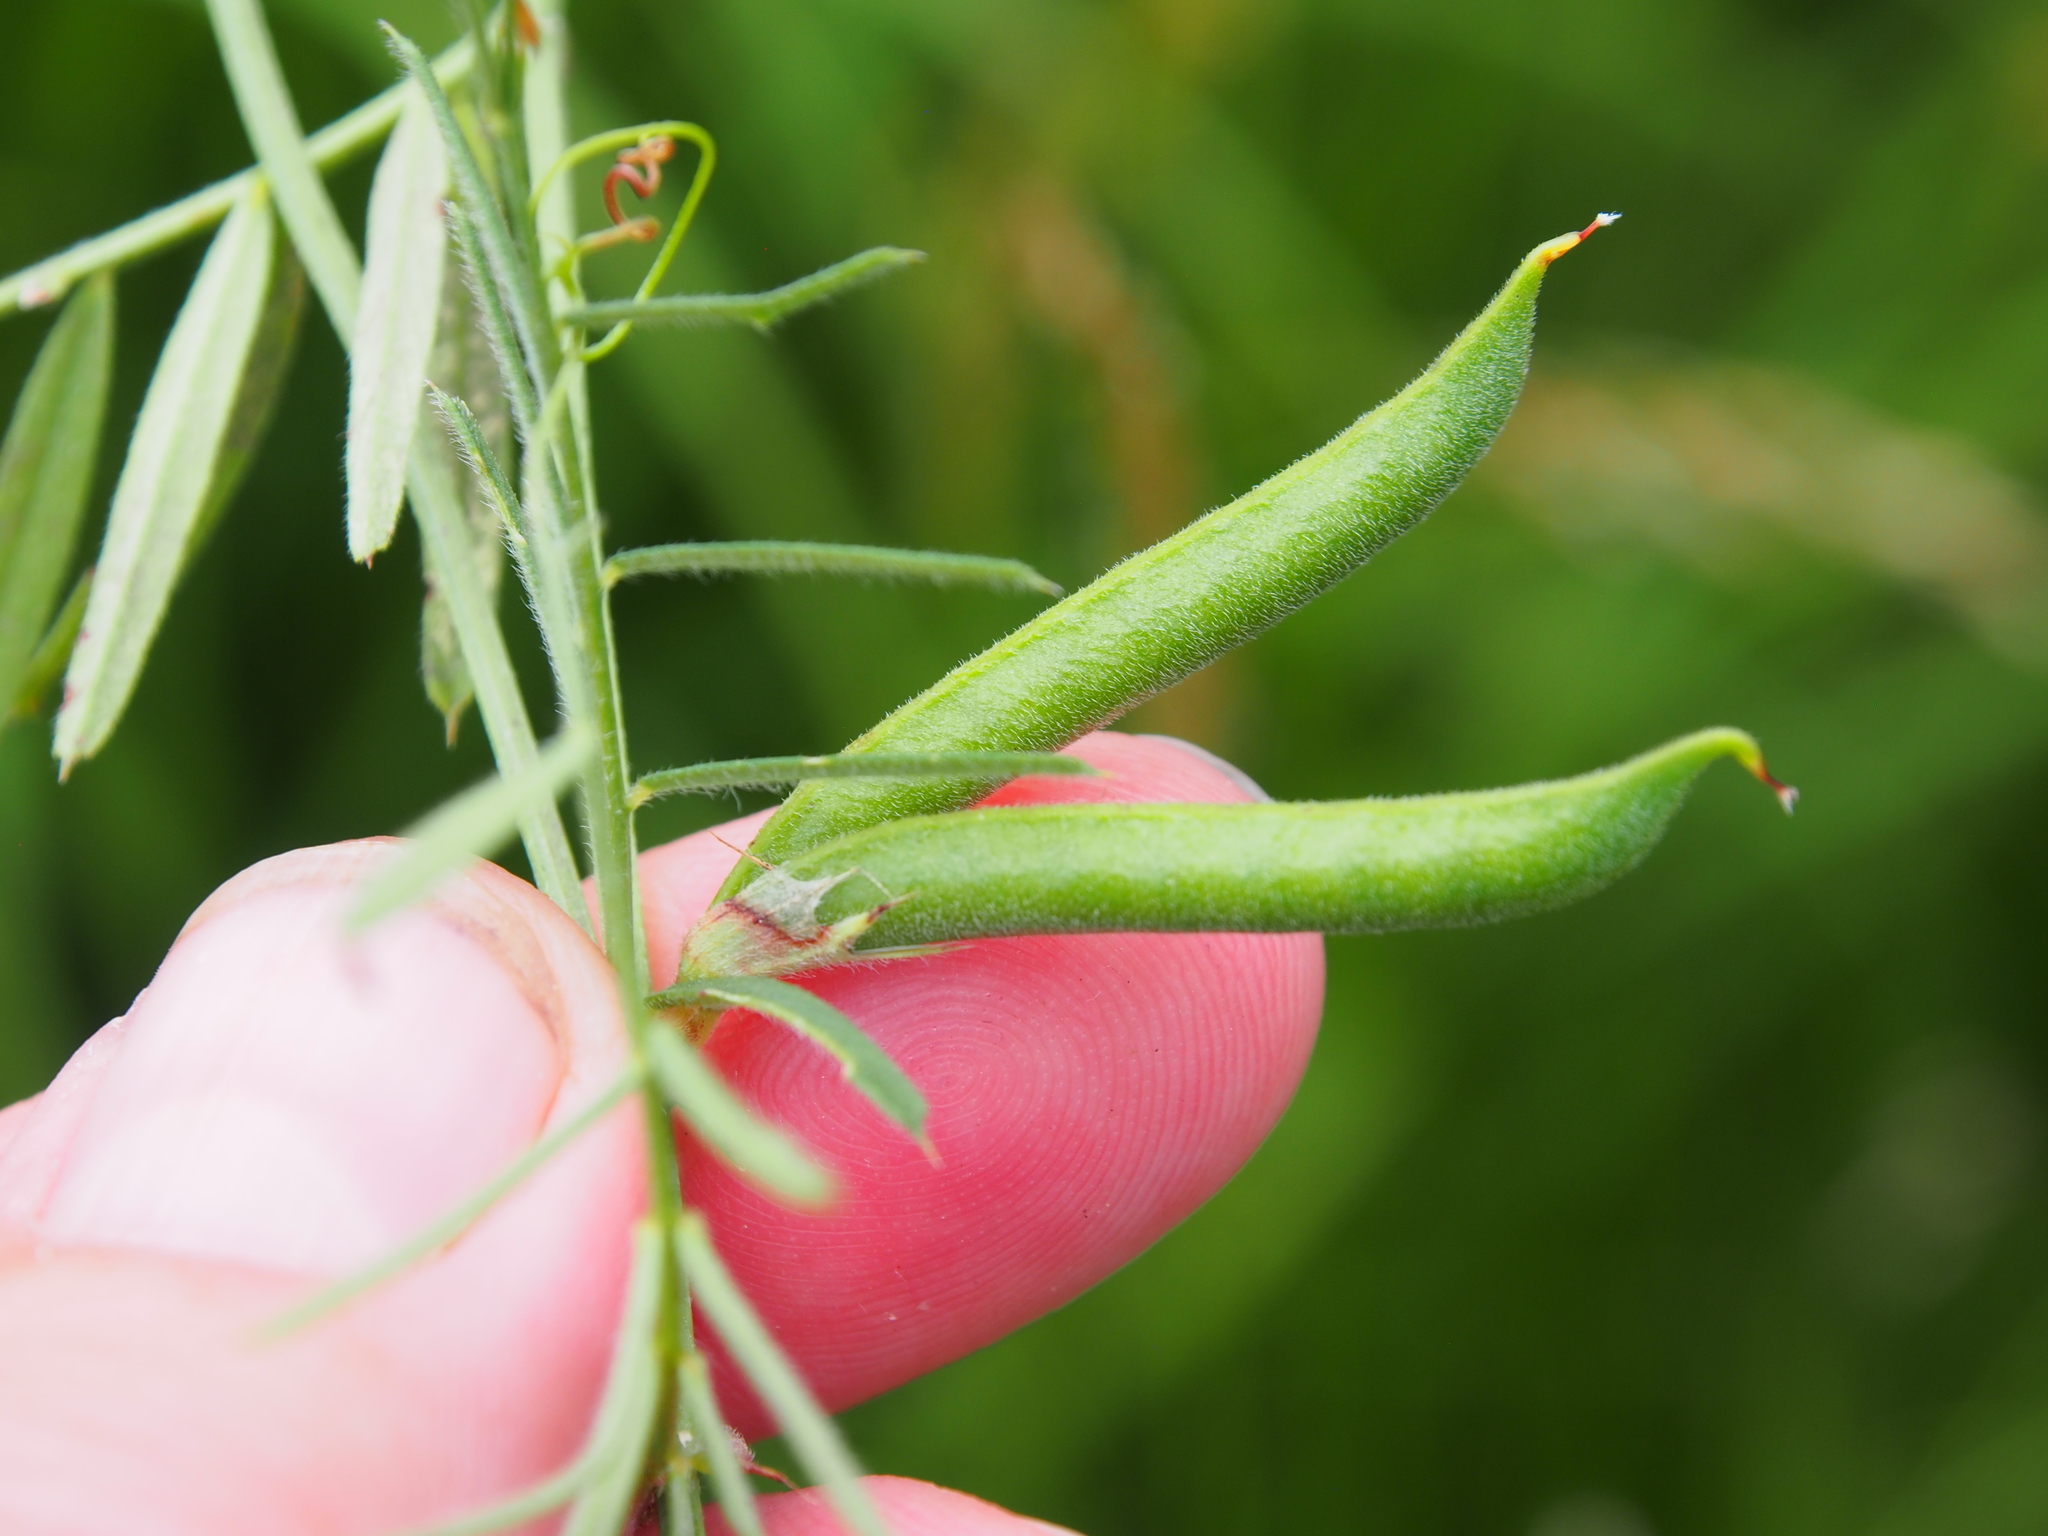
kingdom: Plantae
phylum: Tracheophyta
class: Magnoliopsida
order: Fabales
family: Fabaceae
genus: Vicia
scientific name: Vicia sativa
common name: Garden vetch
